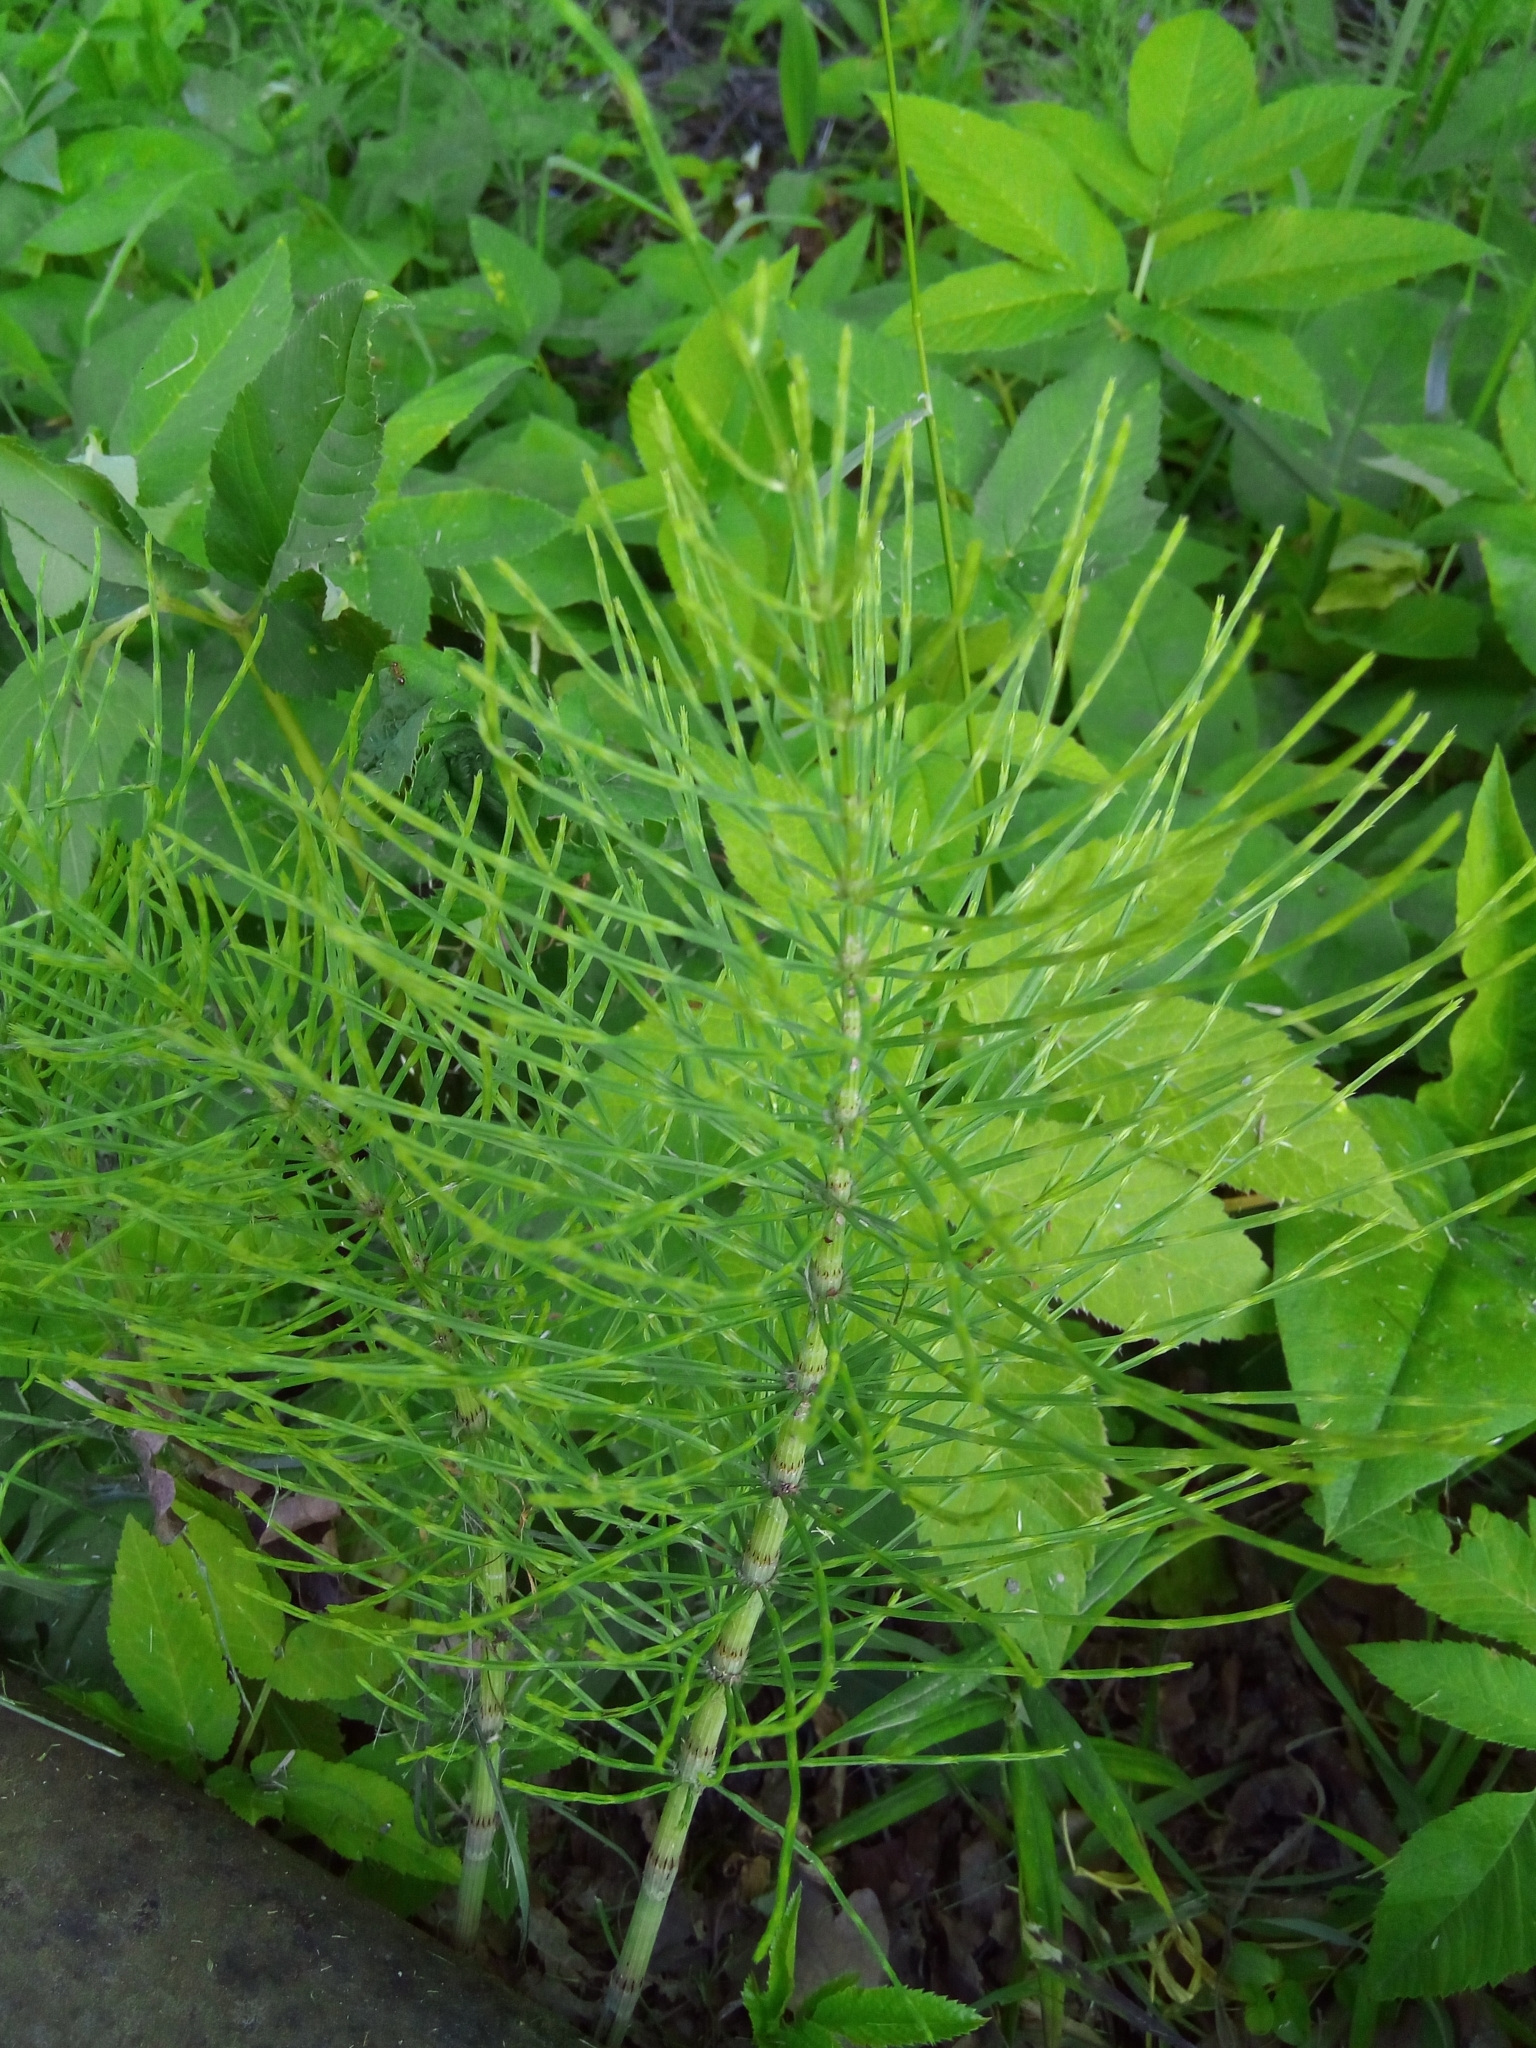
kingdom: Plantae
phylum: Tracheophyta
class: Polypodiopsida
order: Equisetales
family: Equisetaceae
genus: Equisetum
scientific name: Equisetum arvense
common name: Field horsetail
